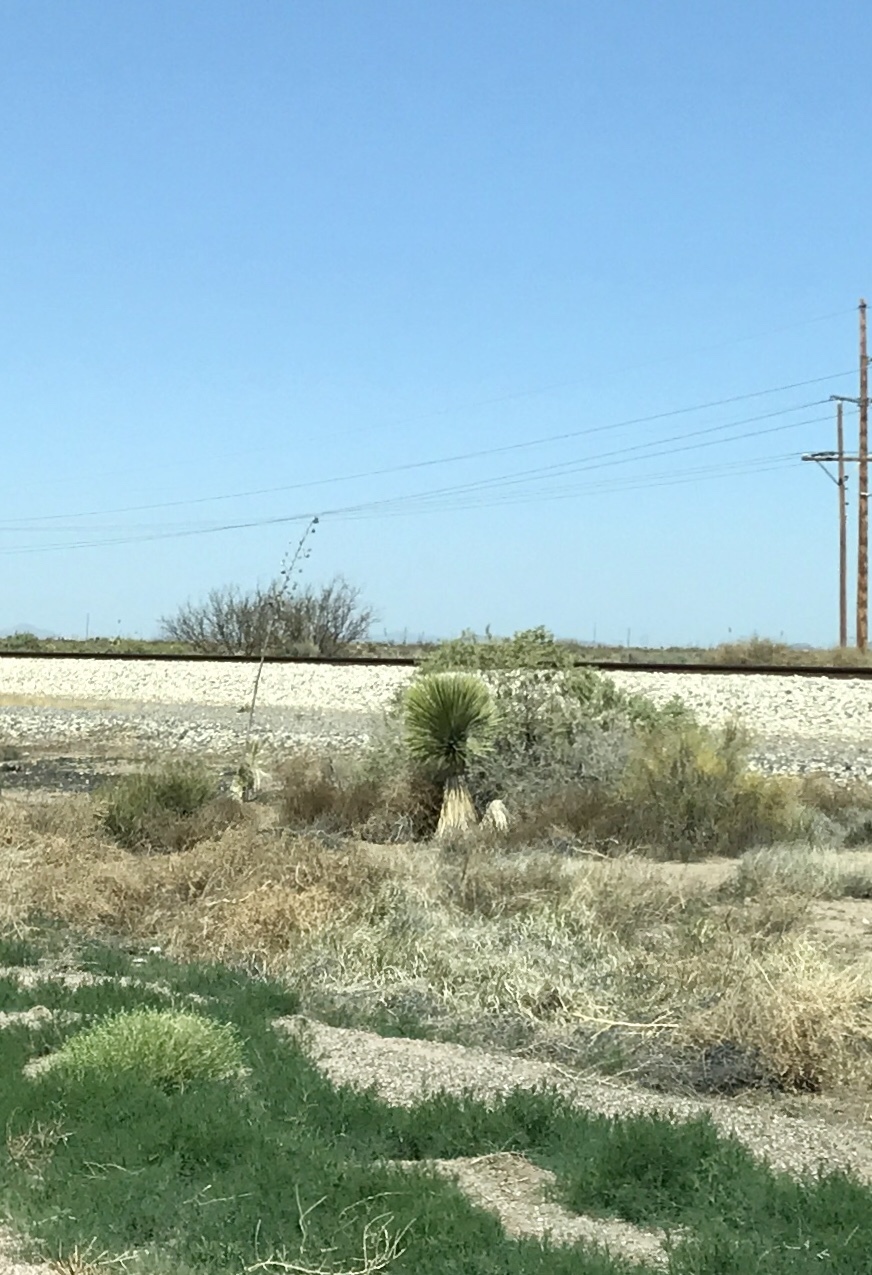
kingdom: Plantae
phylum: Tracheophyta
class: Liliopsida
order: Asparagales
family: Asparagaceae
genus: Yucca
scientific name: Yucca elata
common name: Palmella
